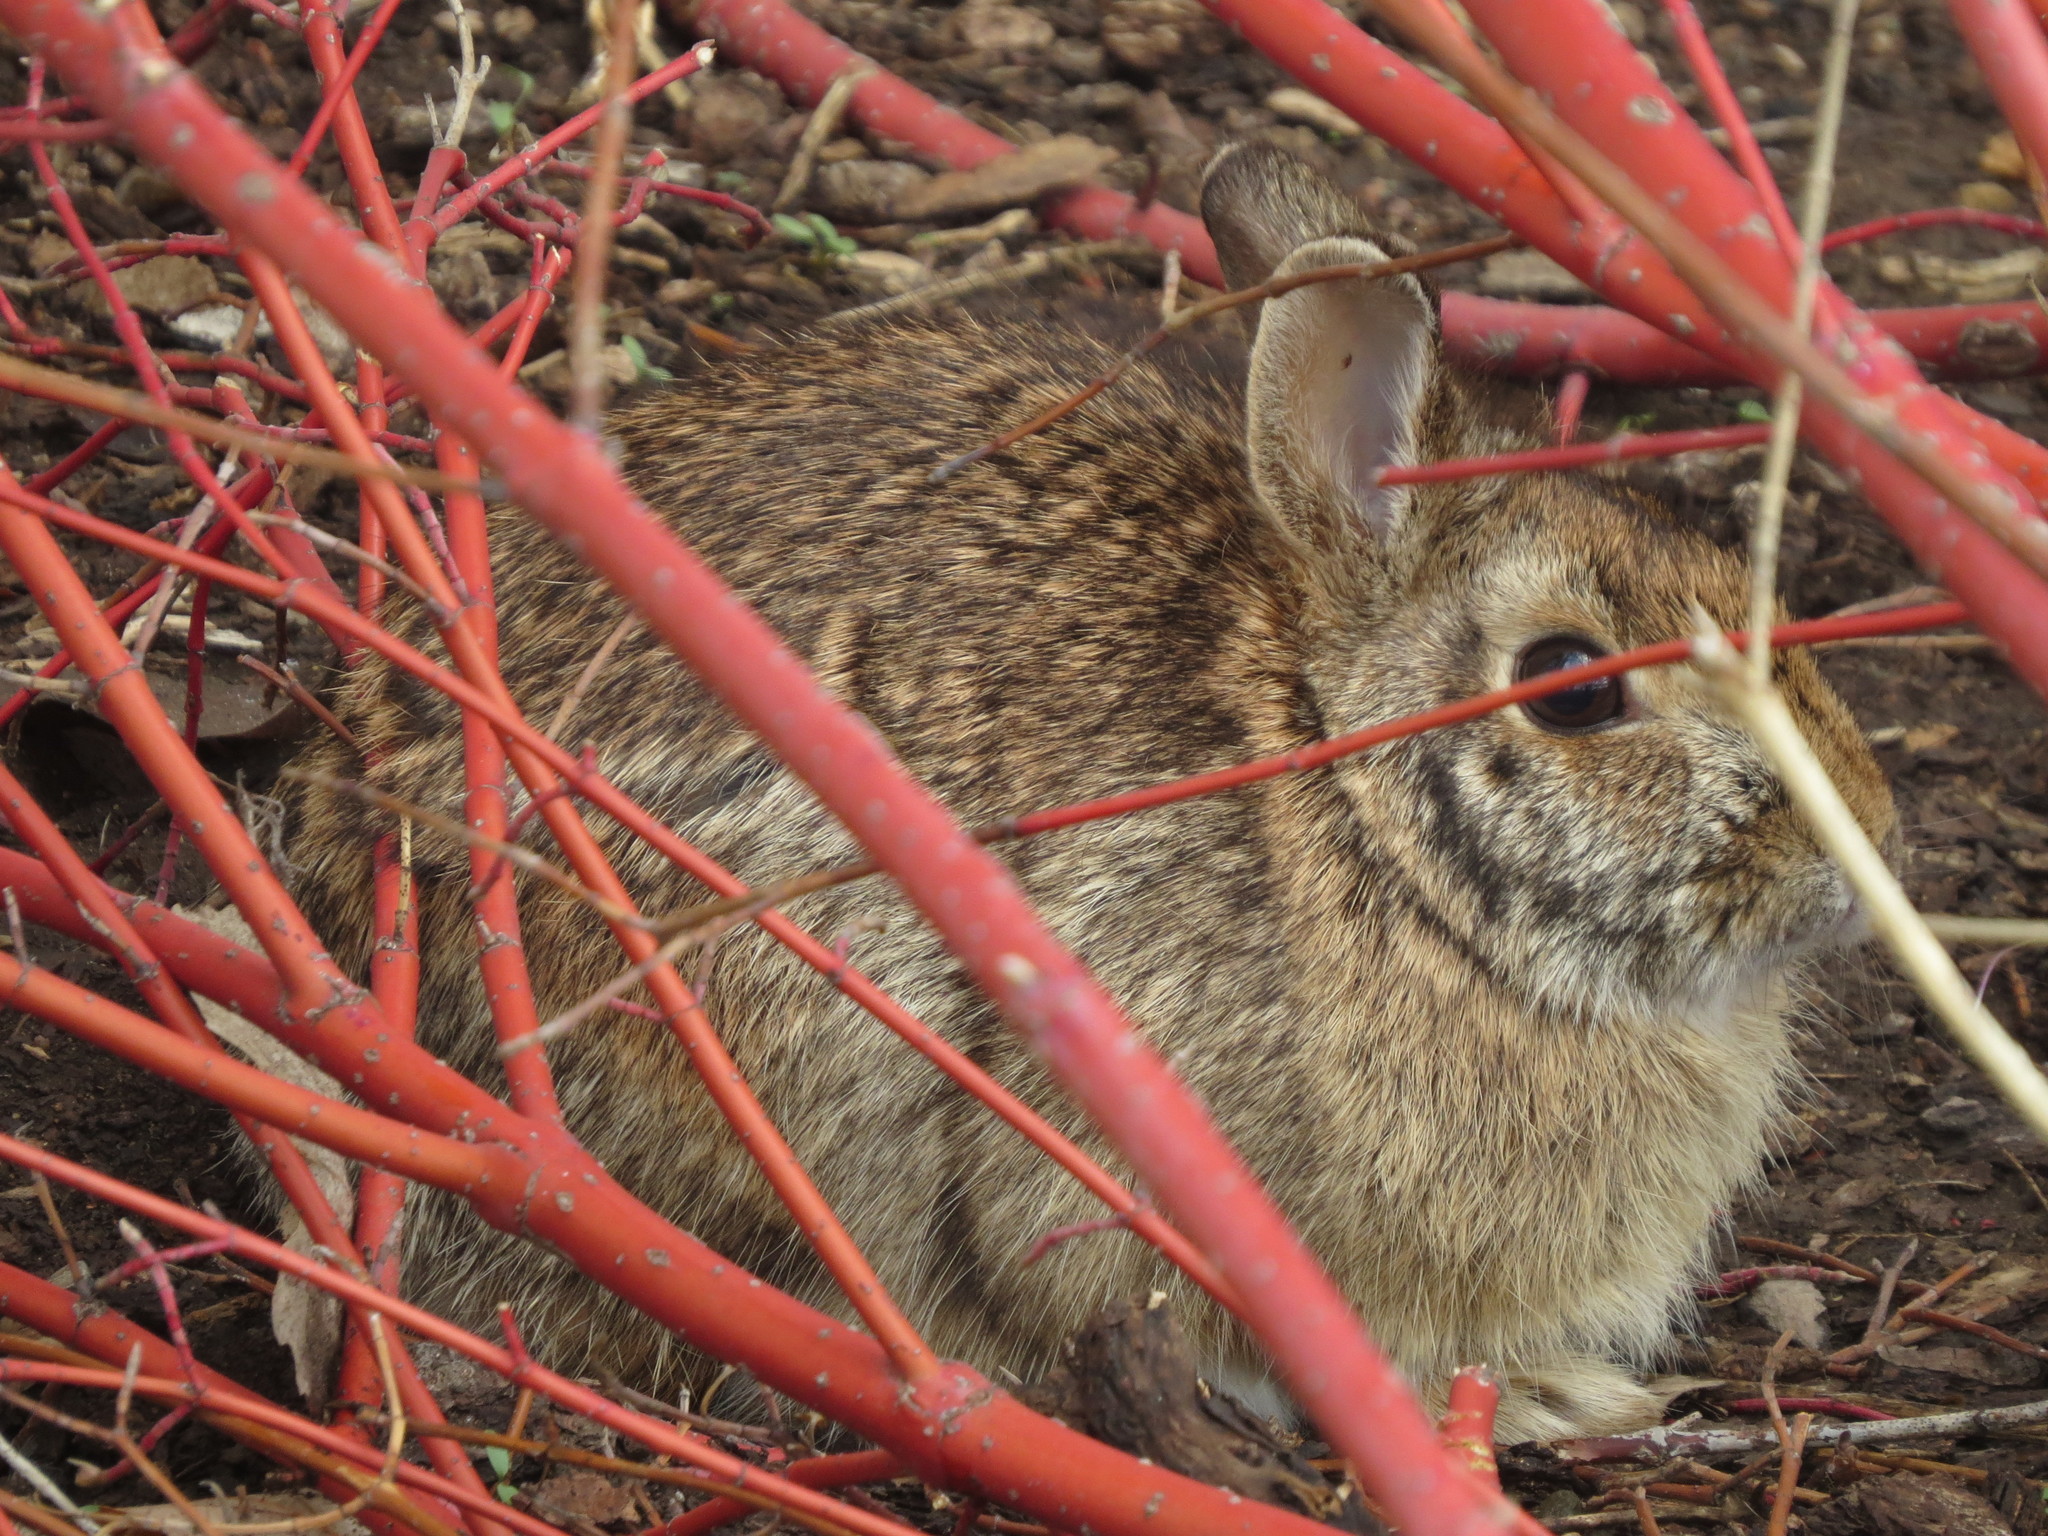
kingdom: Animalia
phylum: Chordata
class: Mammalia
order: Lagomorpha
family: Leporidae
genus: Sylvilagus
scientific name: Sylvilagus floridanus
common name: Eastern cottontail
